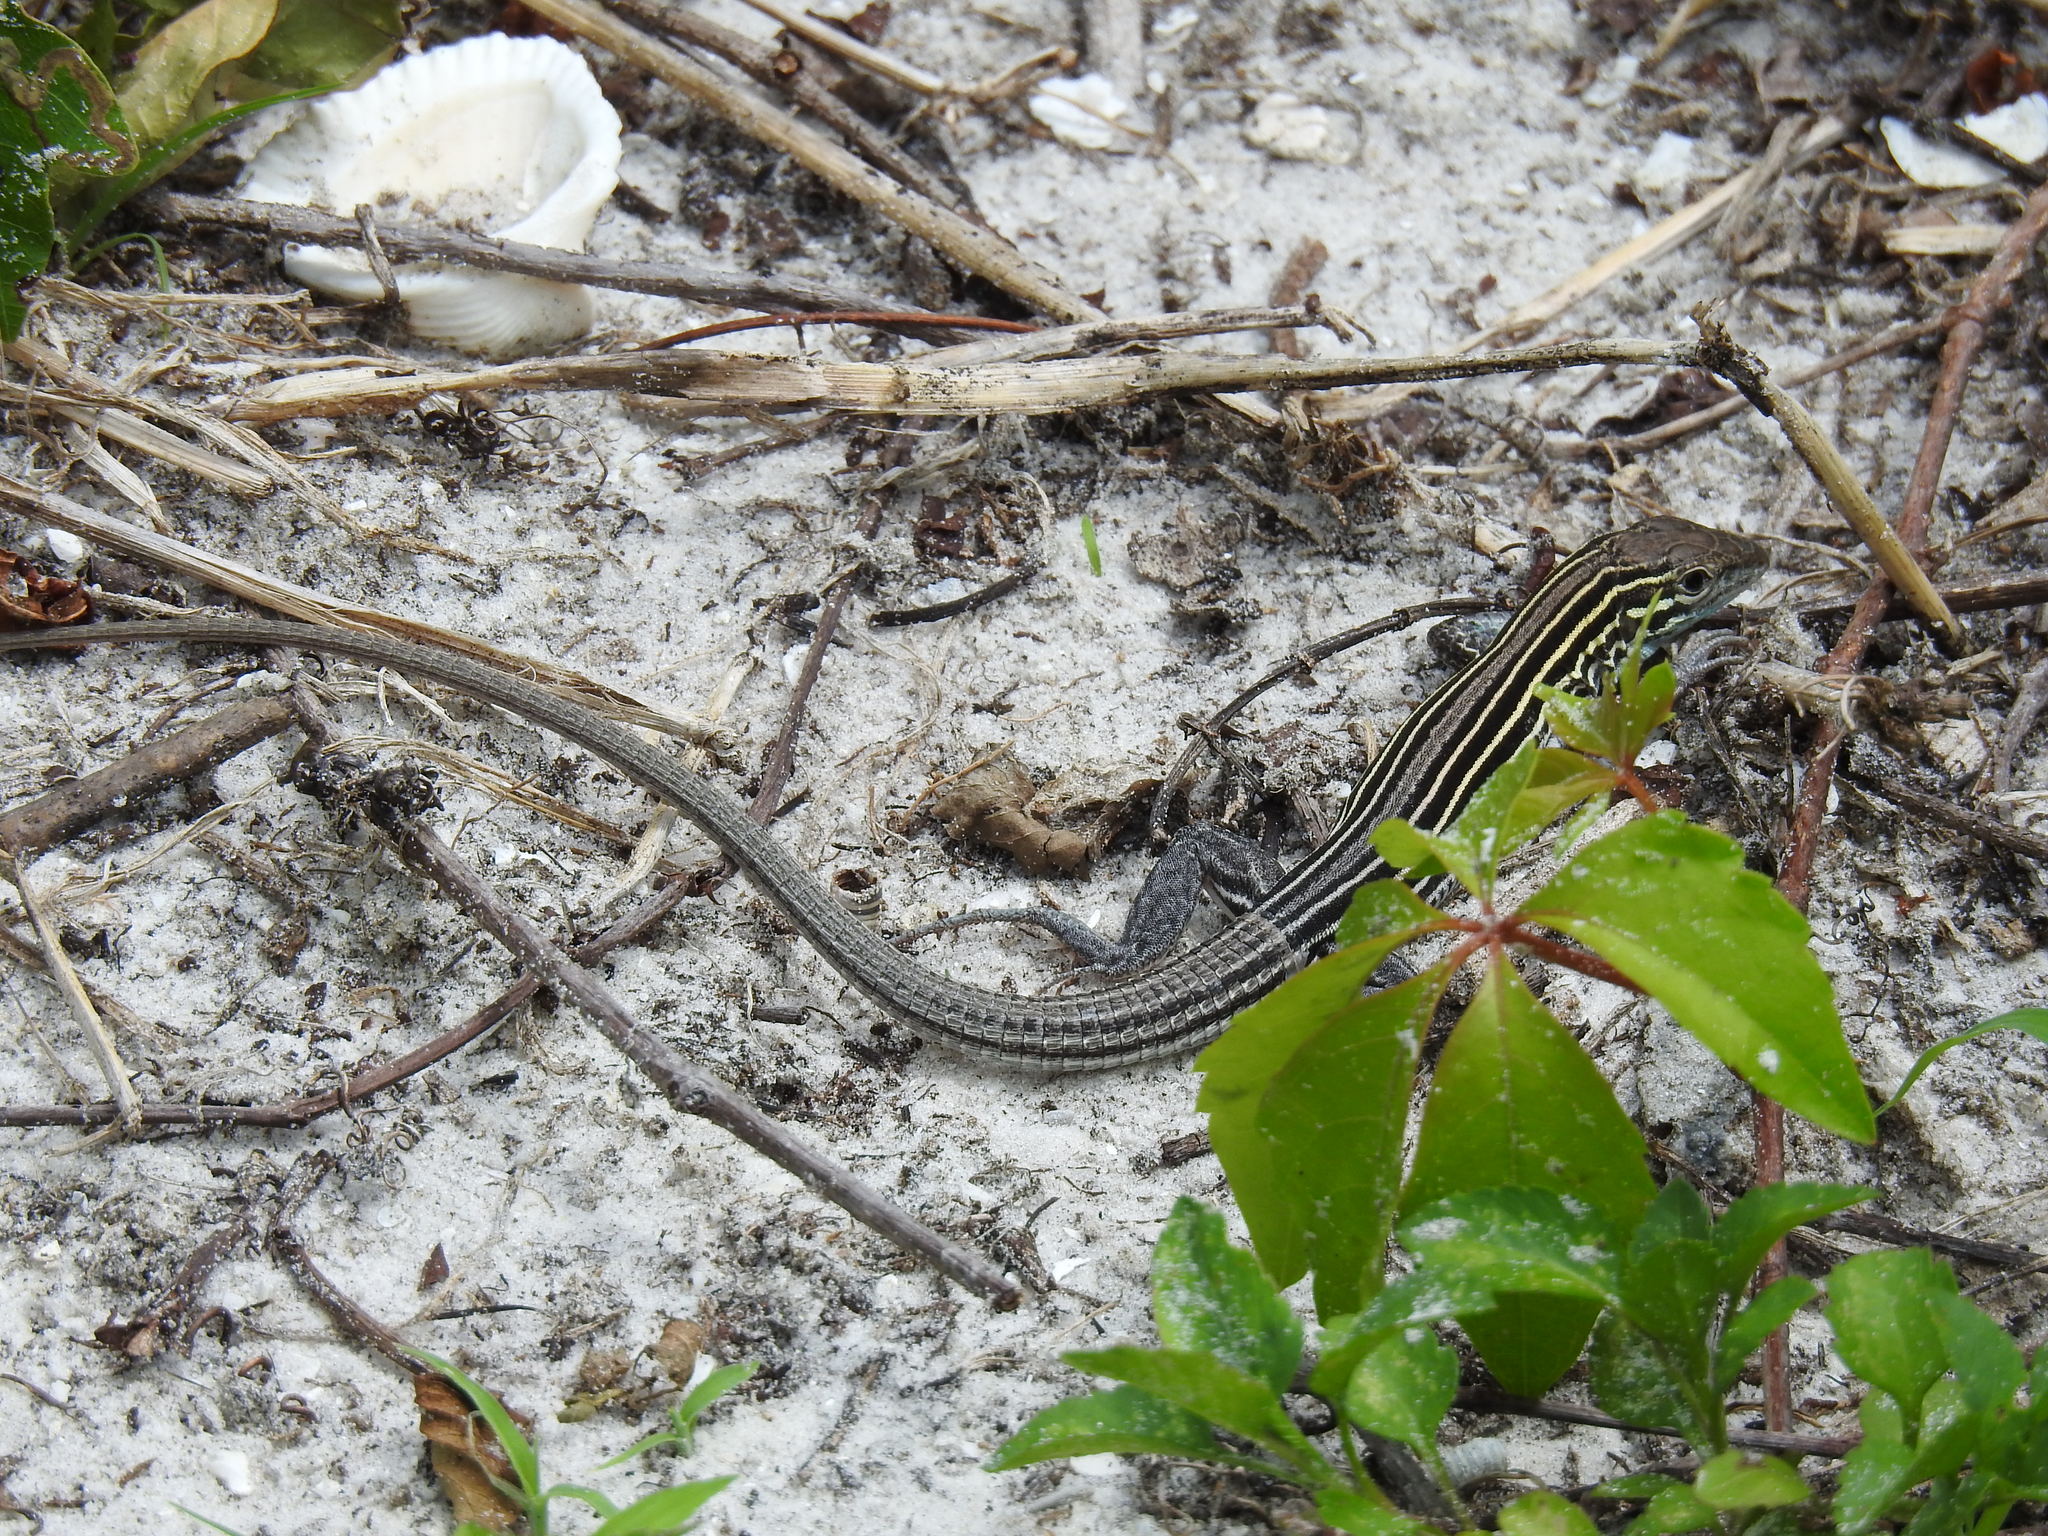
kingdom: Animalia
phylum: Chordata
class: Squamata
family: Teiidae
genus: Aspidoscelis
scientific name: Aspidoscelis sexlineatus
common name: Six-lined racerunner
